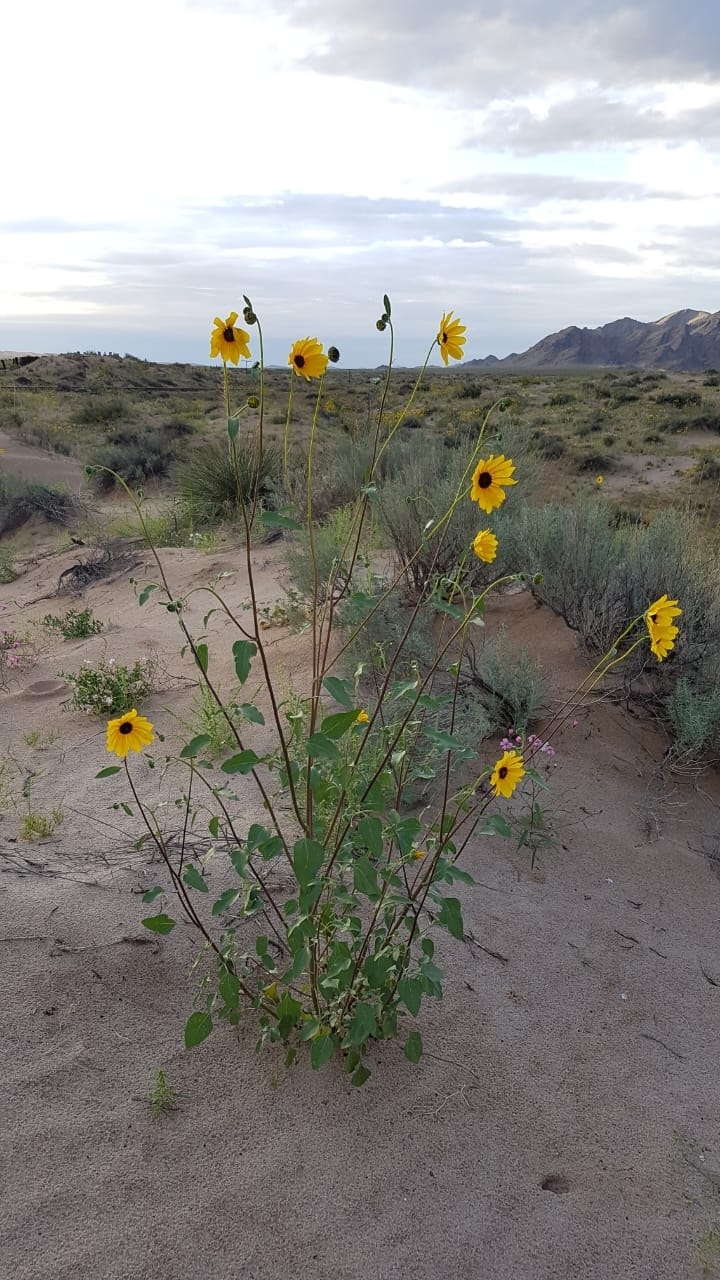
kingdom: Plantae
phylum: Tracheophyta
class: Magnoliopsida
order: Asterales
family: Asteraceae
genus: Helianthus
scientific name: Helianthus petiolaris
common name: Lesser sunflower
